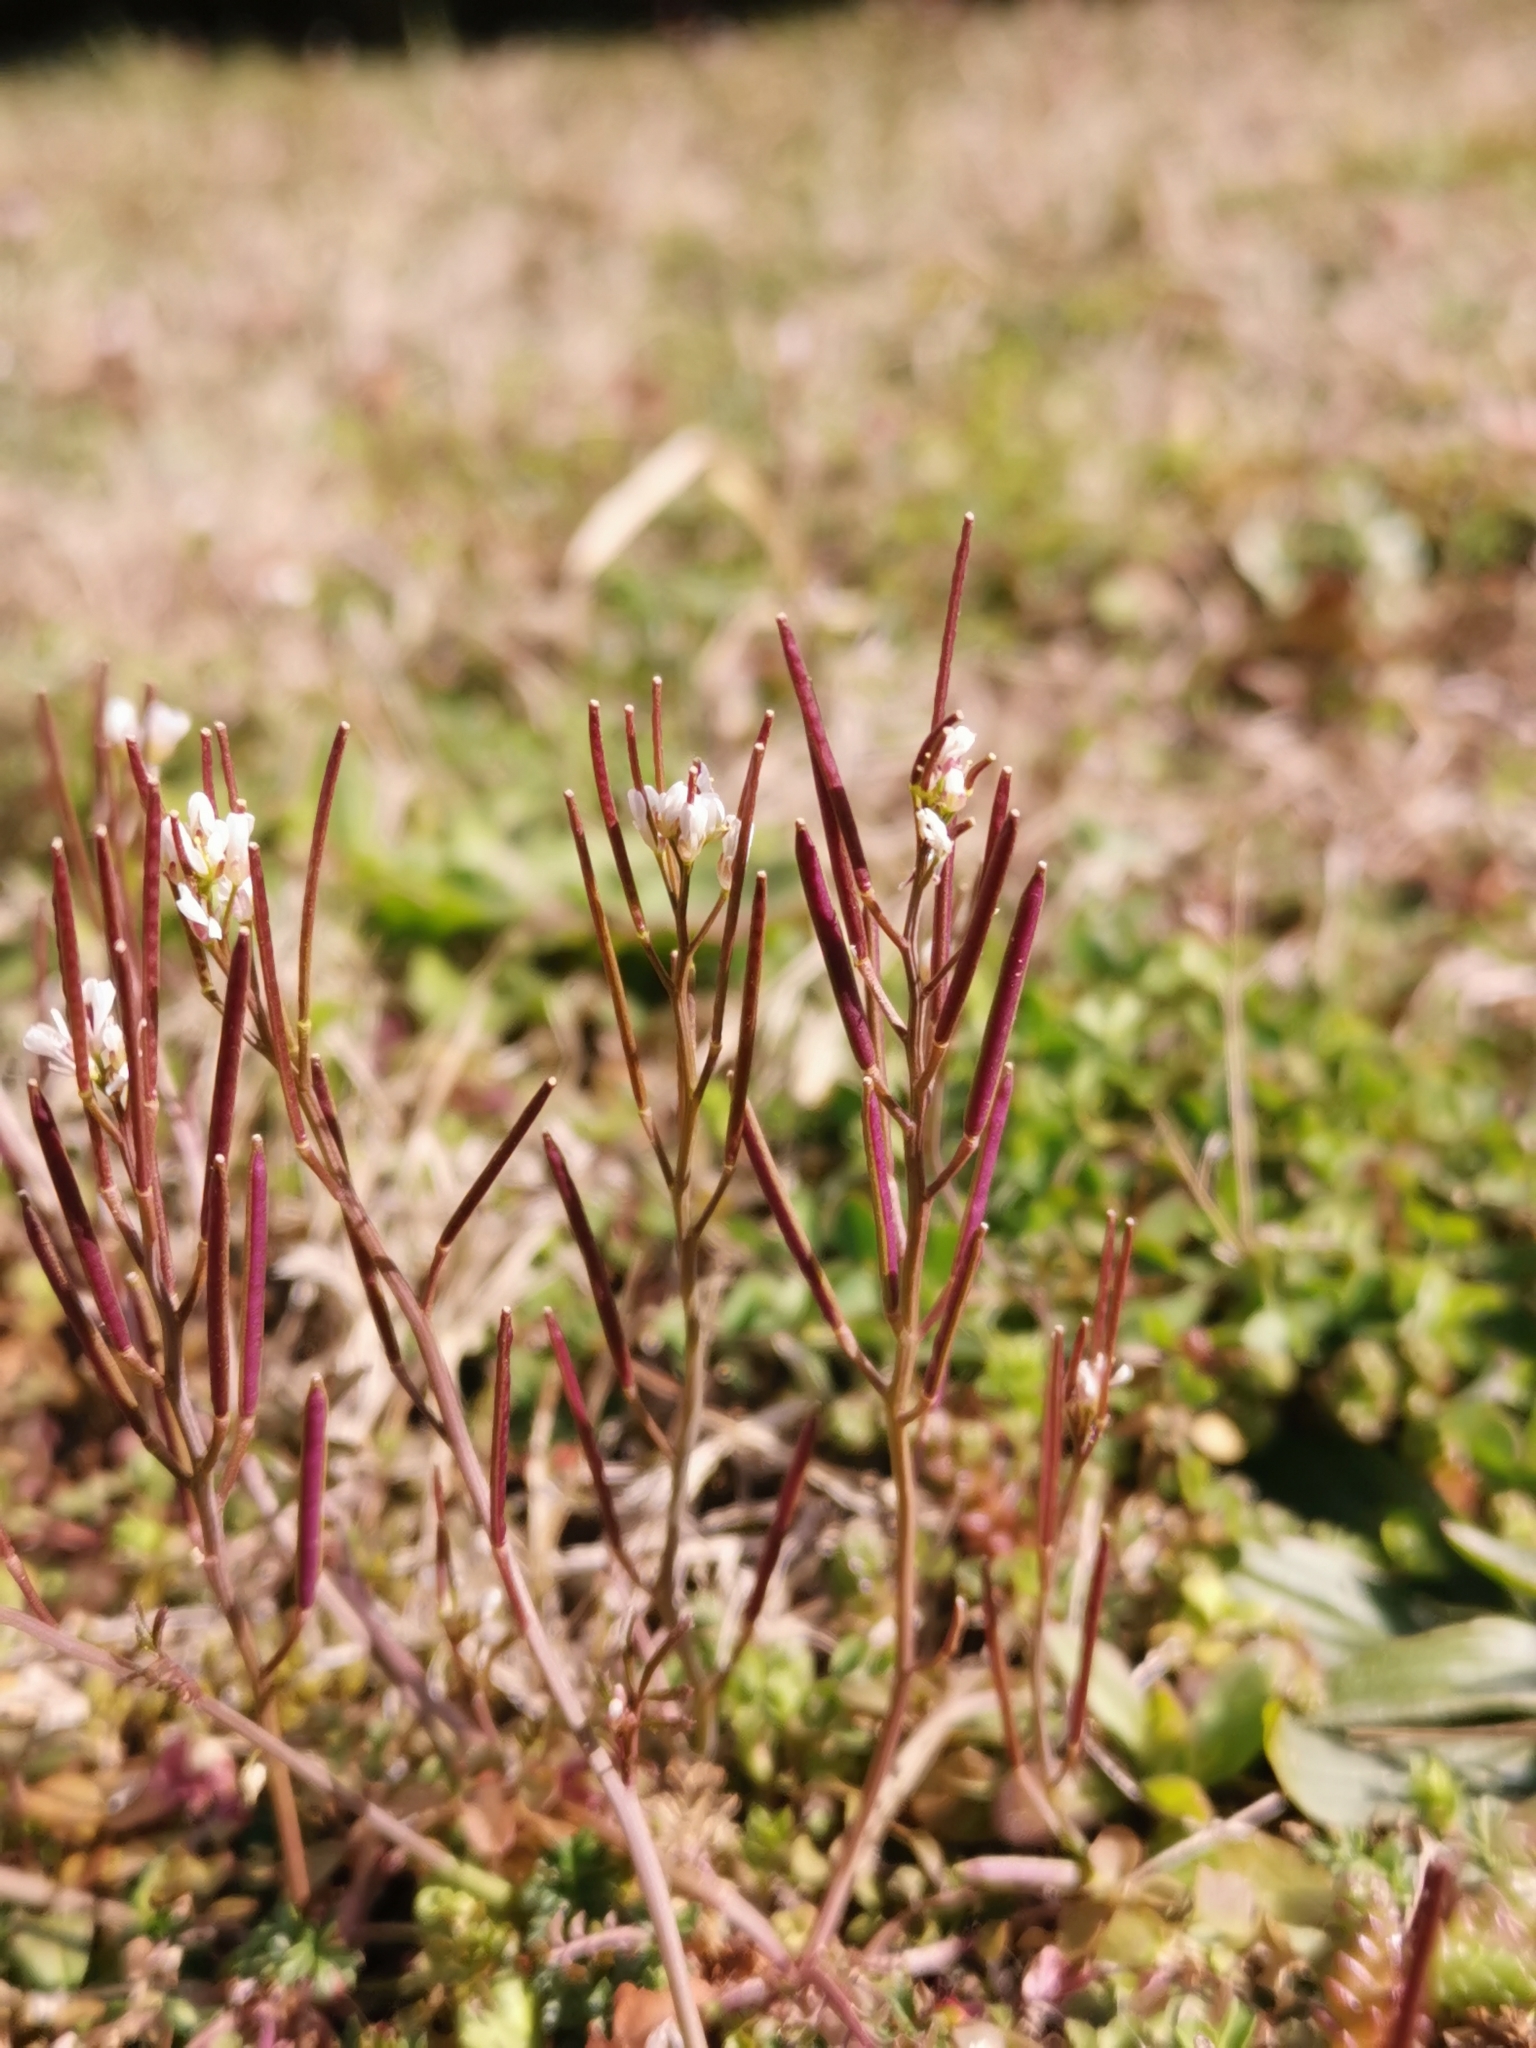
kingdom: Plantae
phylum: Tracheophyta
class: Magnoliopsida
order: Brassicales
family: Brassicaceae
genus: Cardamine
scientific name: Cardamine hirsuta
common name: Hairy bittercress
